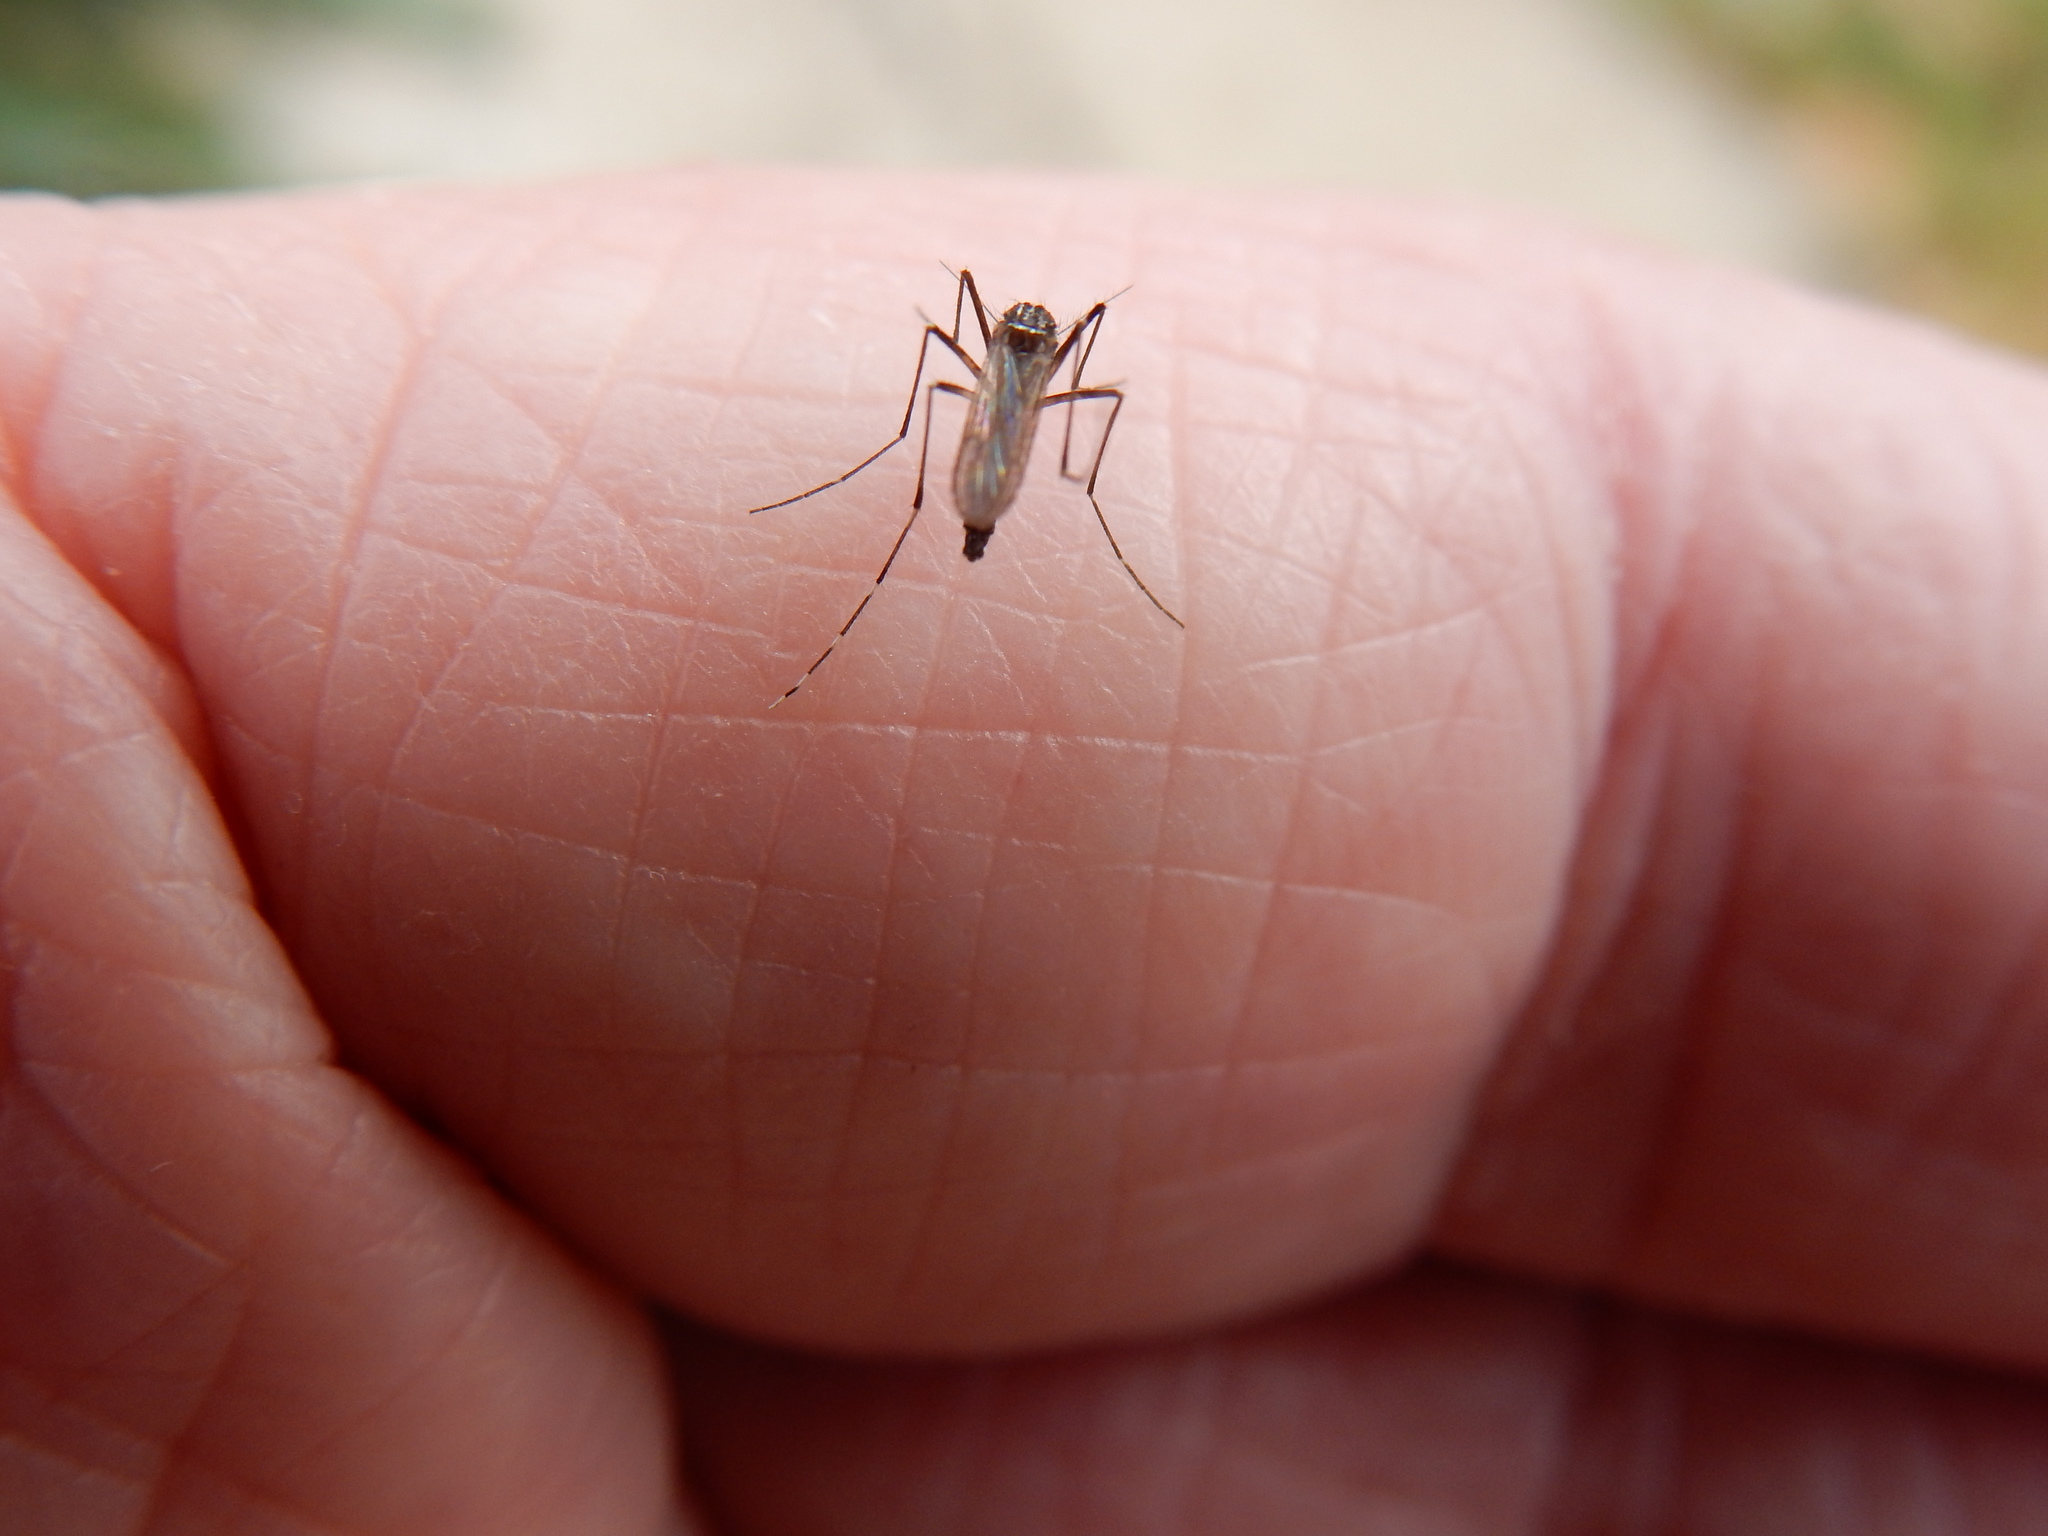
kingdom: Animalia
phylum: Arthropoda
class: Insecta
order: Diptera
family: Culicidae
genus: Aedes
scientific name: Aedes albopictus
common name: Tiger mosquito
